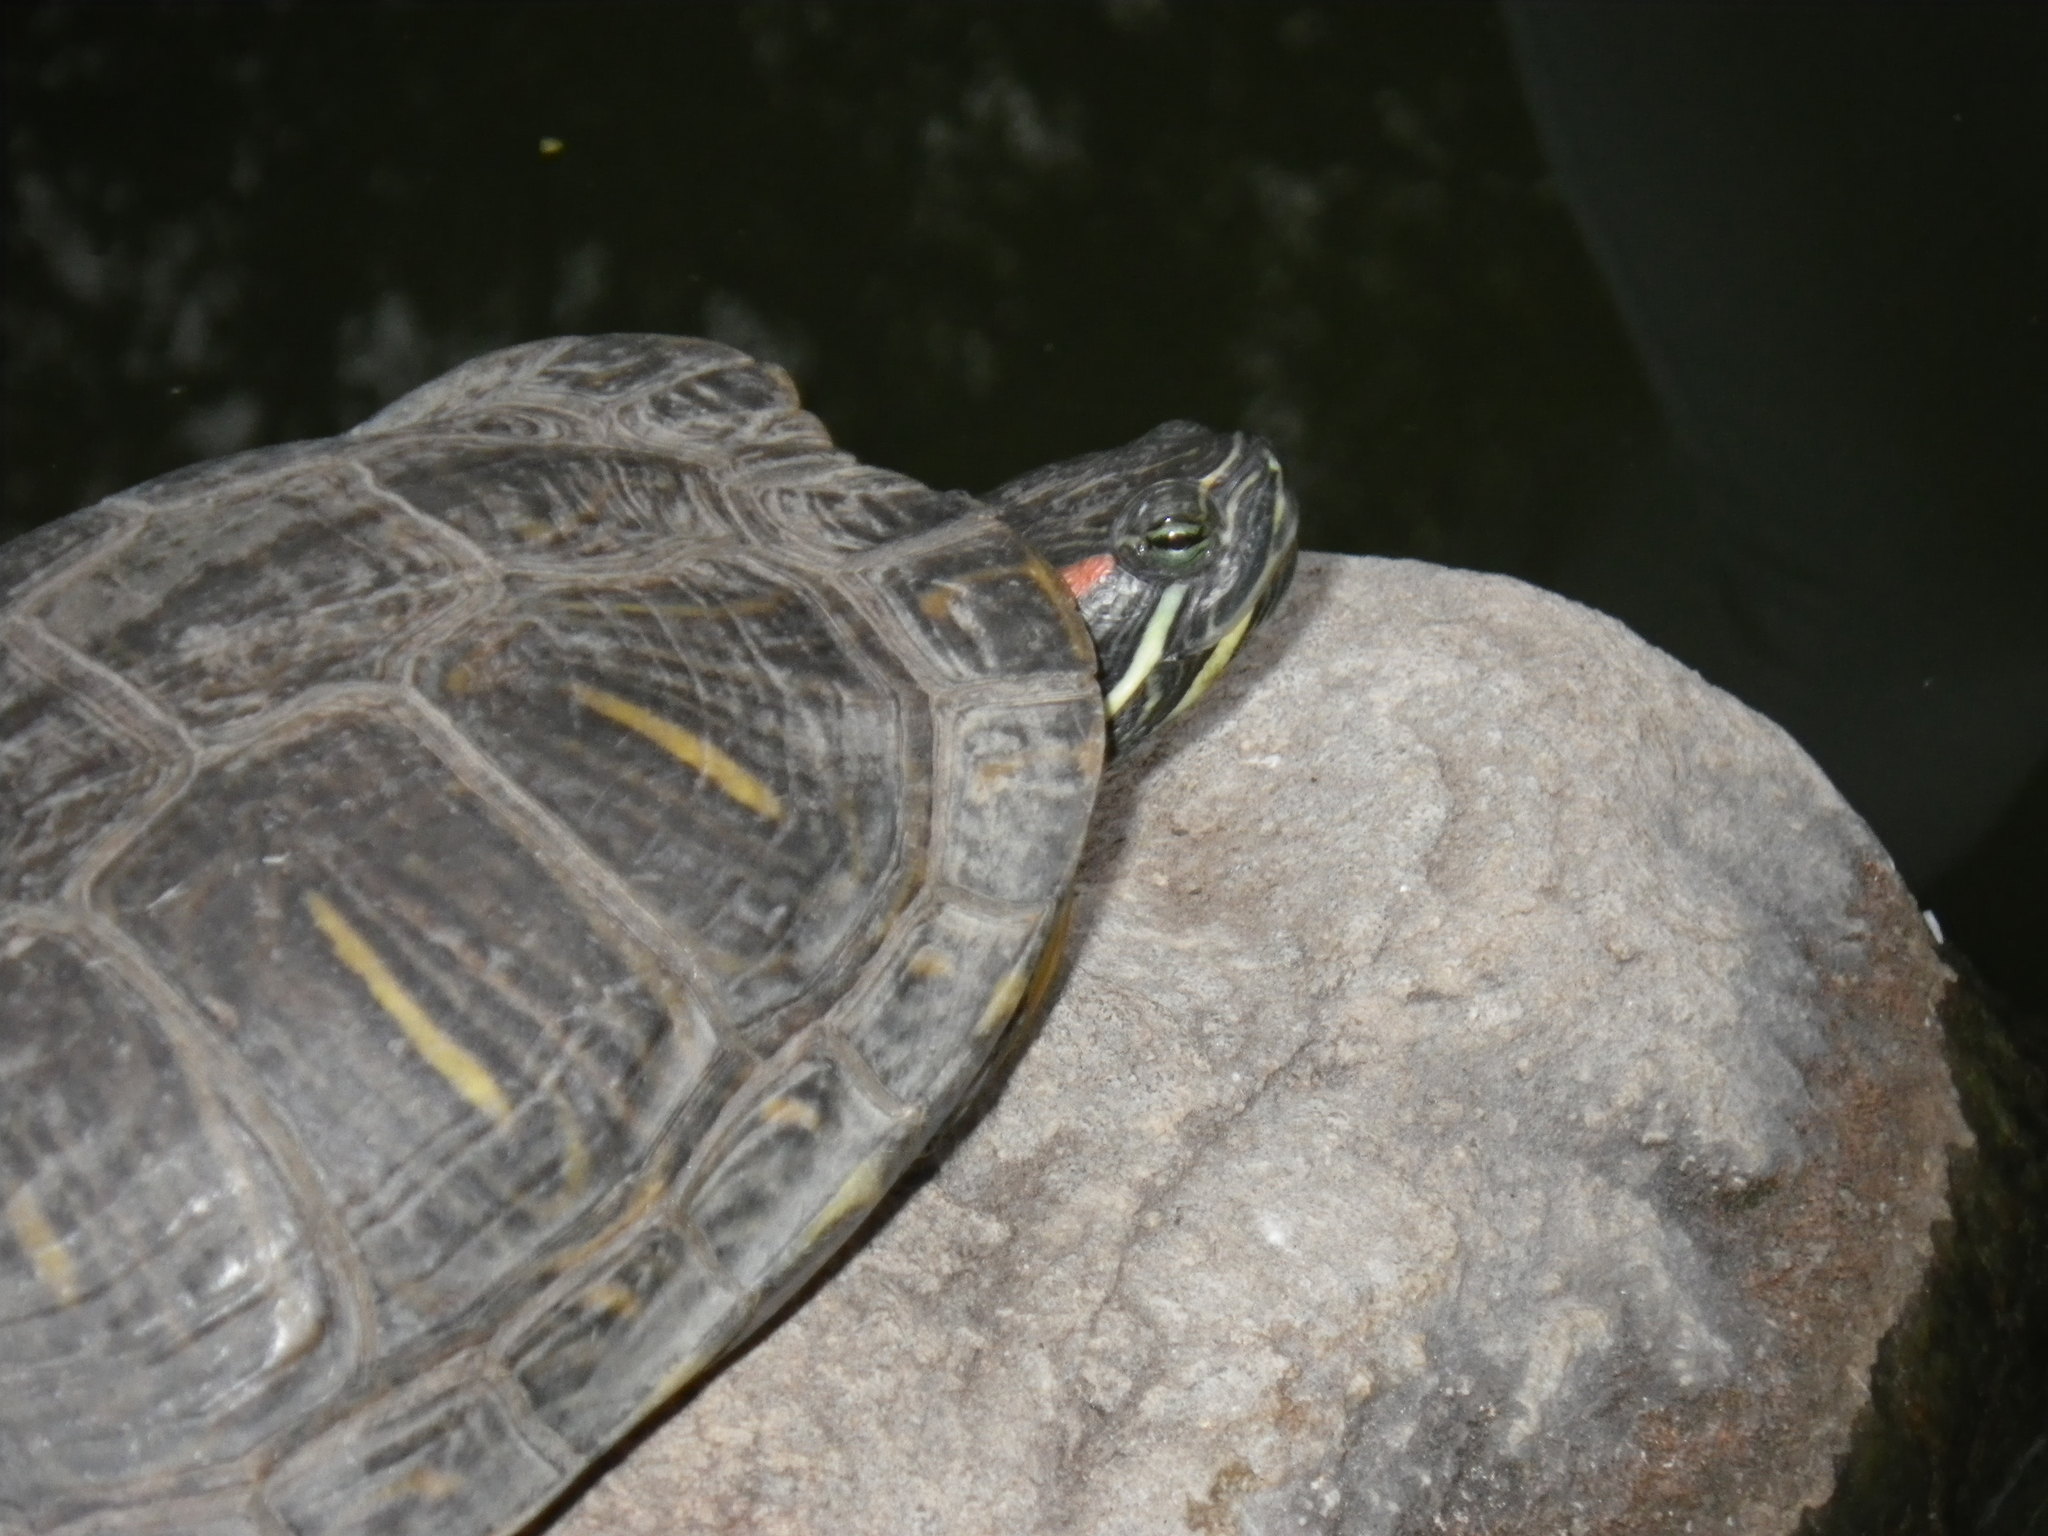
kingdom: Animalia
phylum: Chordata
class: Testudines
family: Emydidae
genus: Trachemys
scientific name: Trachemys scripta
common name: Slider
